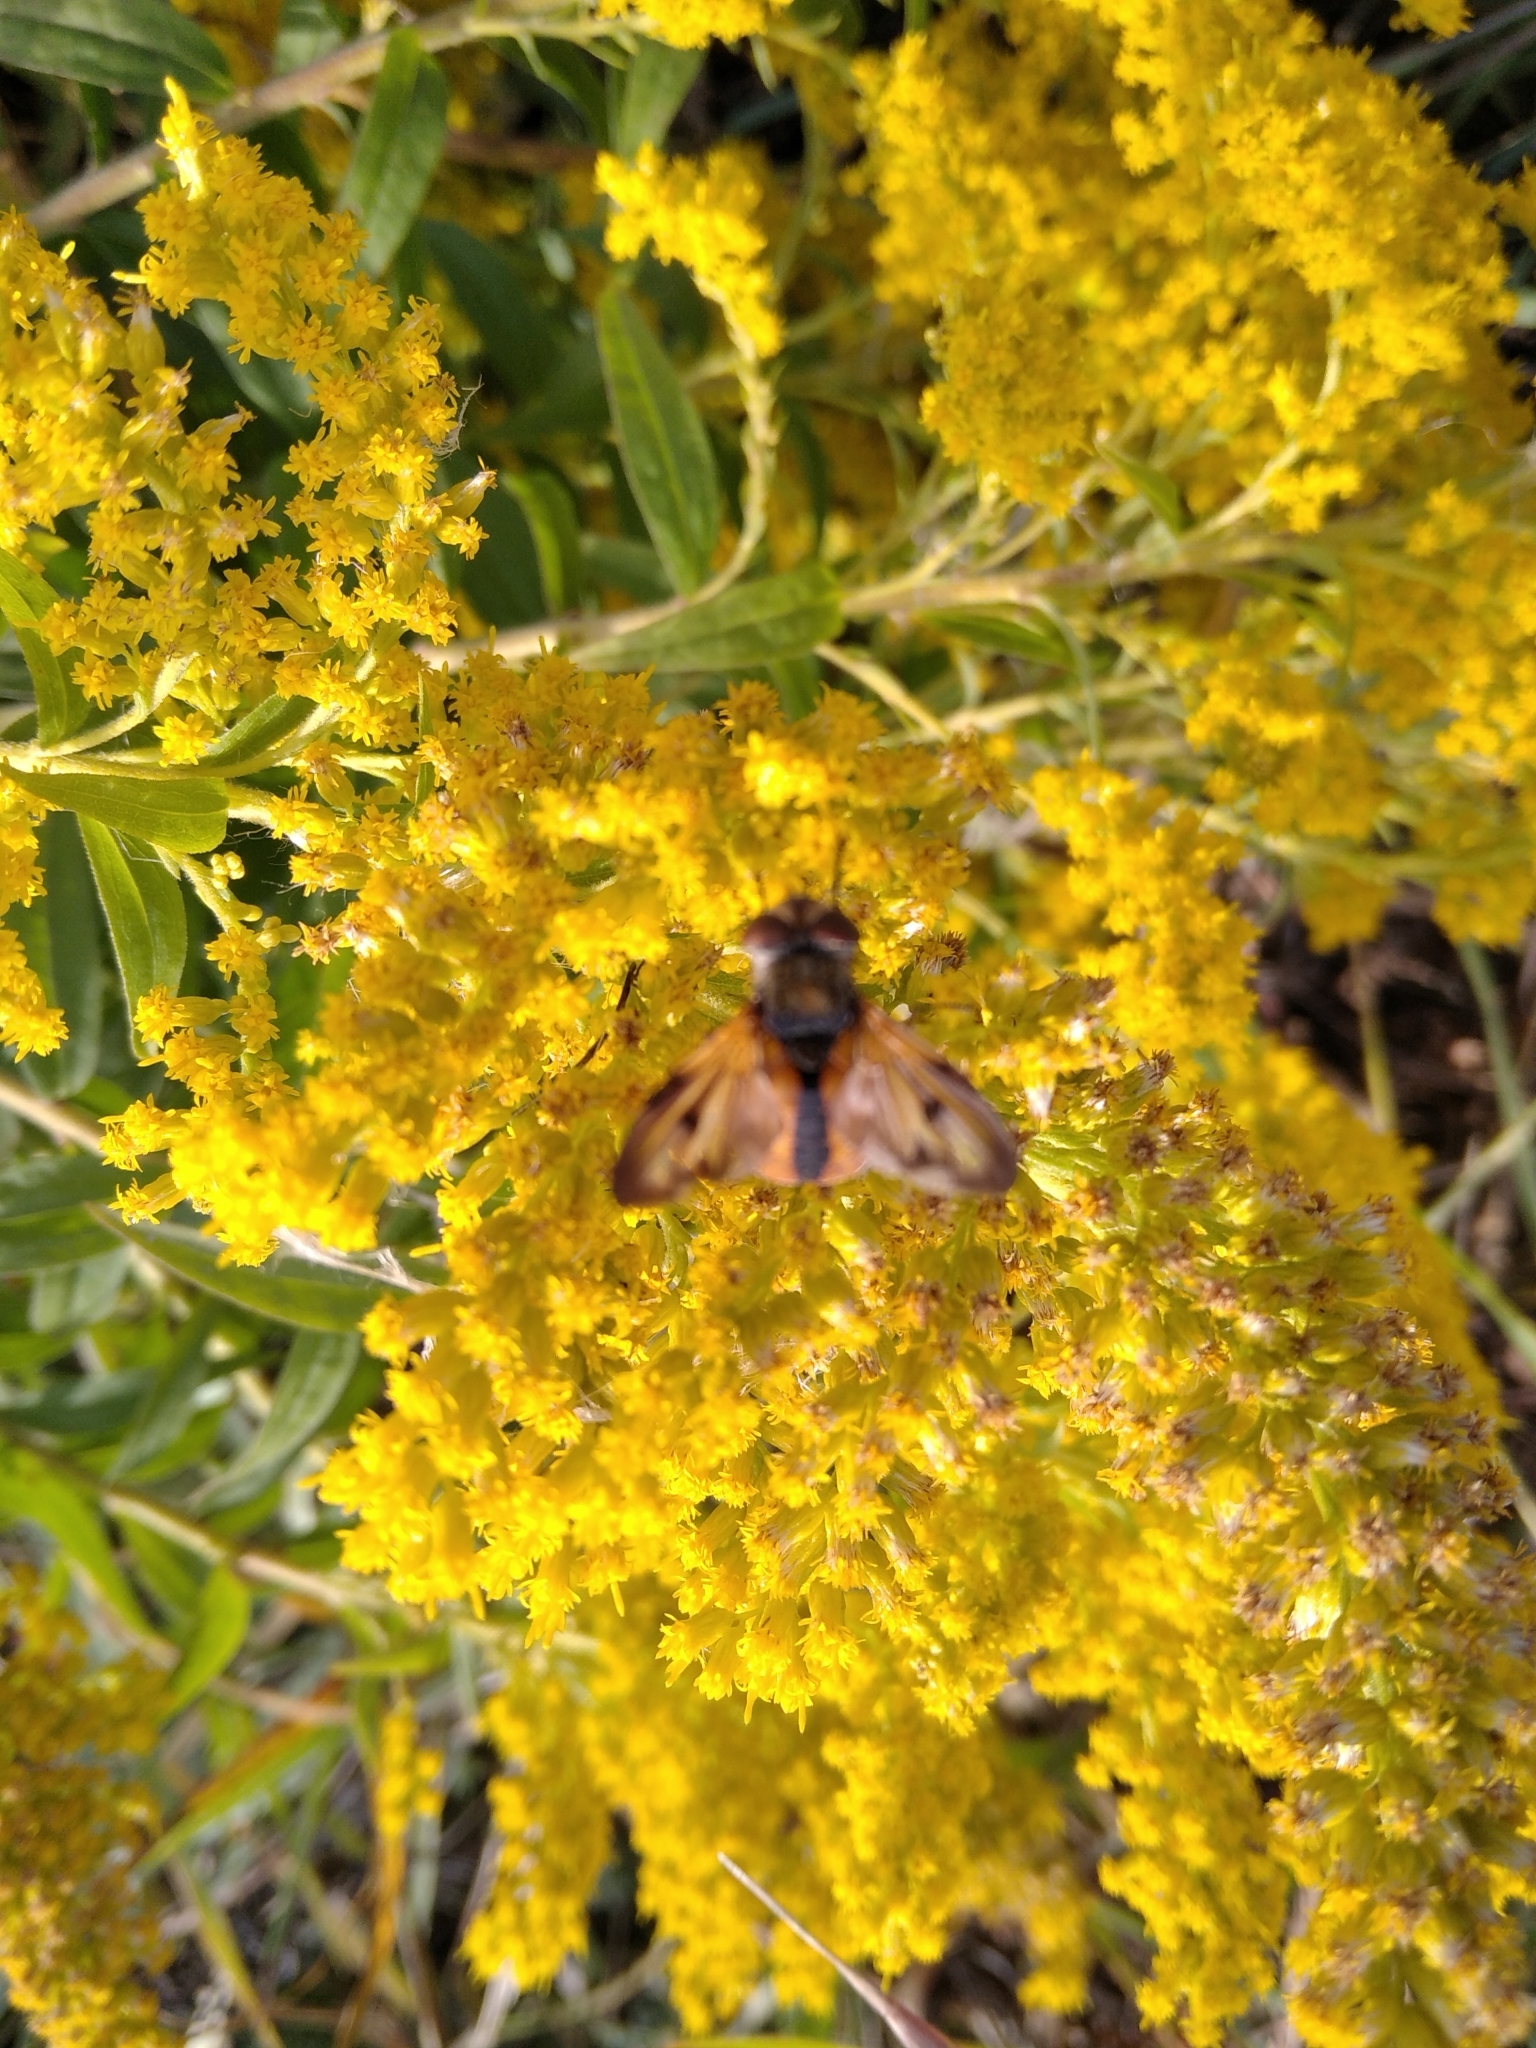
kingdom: Animalia
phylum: Arthropoda
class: Insecta
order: Diptera
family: Tachinidae
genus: Ectophasia
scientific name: Ectophasia crassipennis
